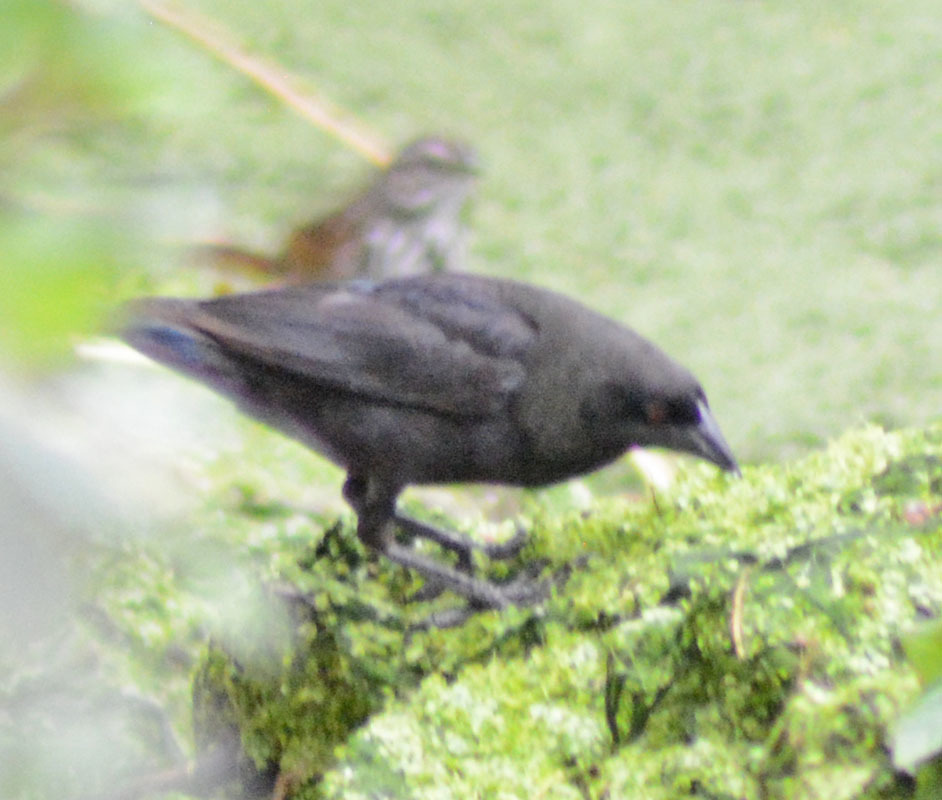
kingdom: Animalia
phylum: Chordata
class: Aves
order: Passeriformes
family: Icteridae
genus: Molothrus
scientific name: Molothrus aeneus
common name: Bronzed cowbird
